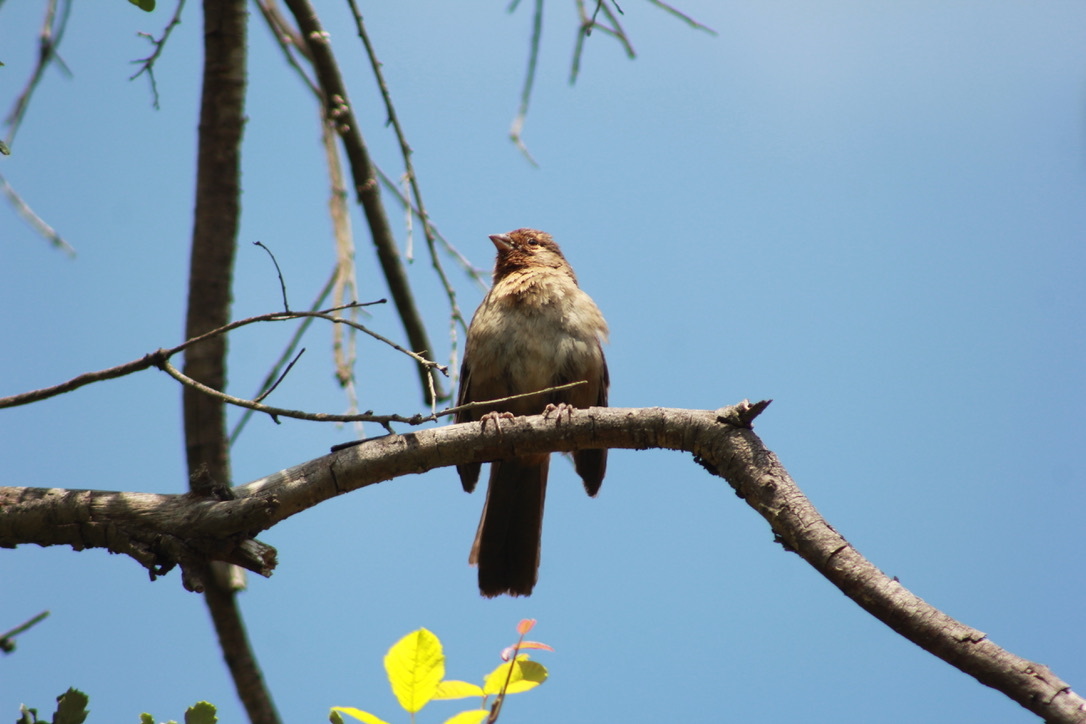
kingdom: Animalia
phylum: Chordata
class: Aves
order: Passeriformes
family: Passerellidae
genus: Melozone
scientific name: Melozone crissalis
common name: California towhee
